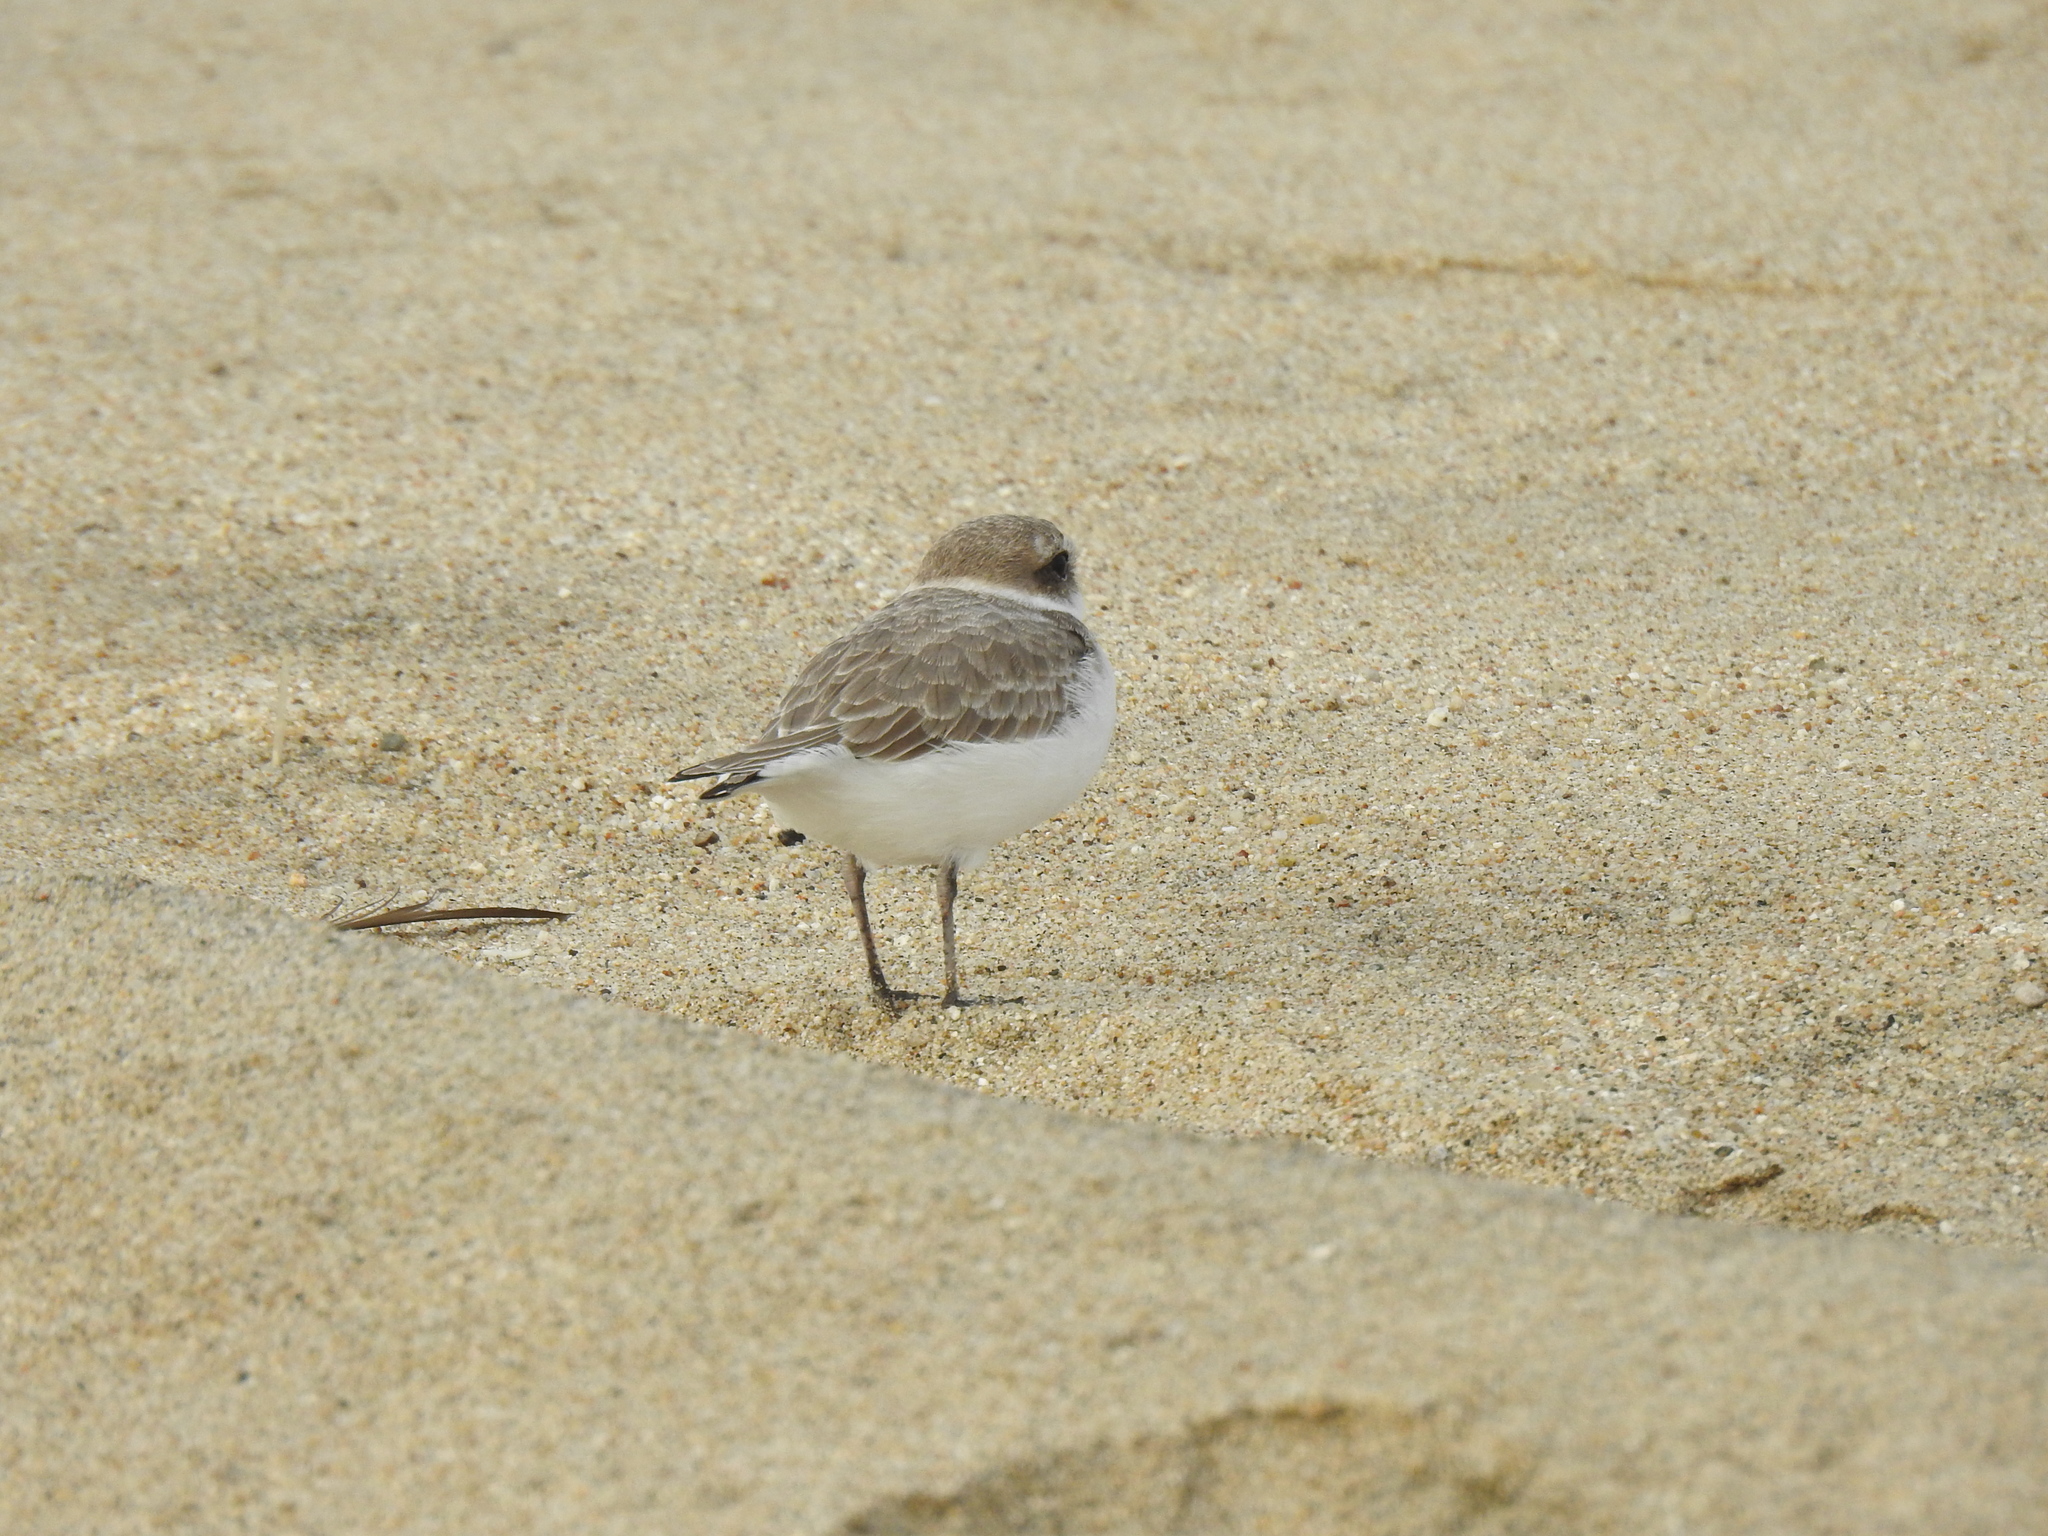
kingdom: Animalia
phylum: Chordata
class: Aves
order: Charadriiformes
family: Charadriidae
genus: Anarhynchus
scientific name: Anarhynchus
